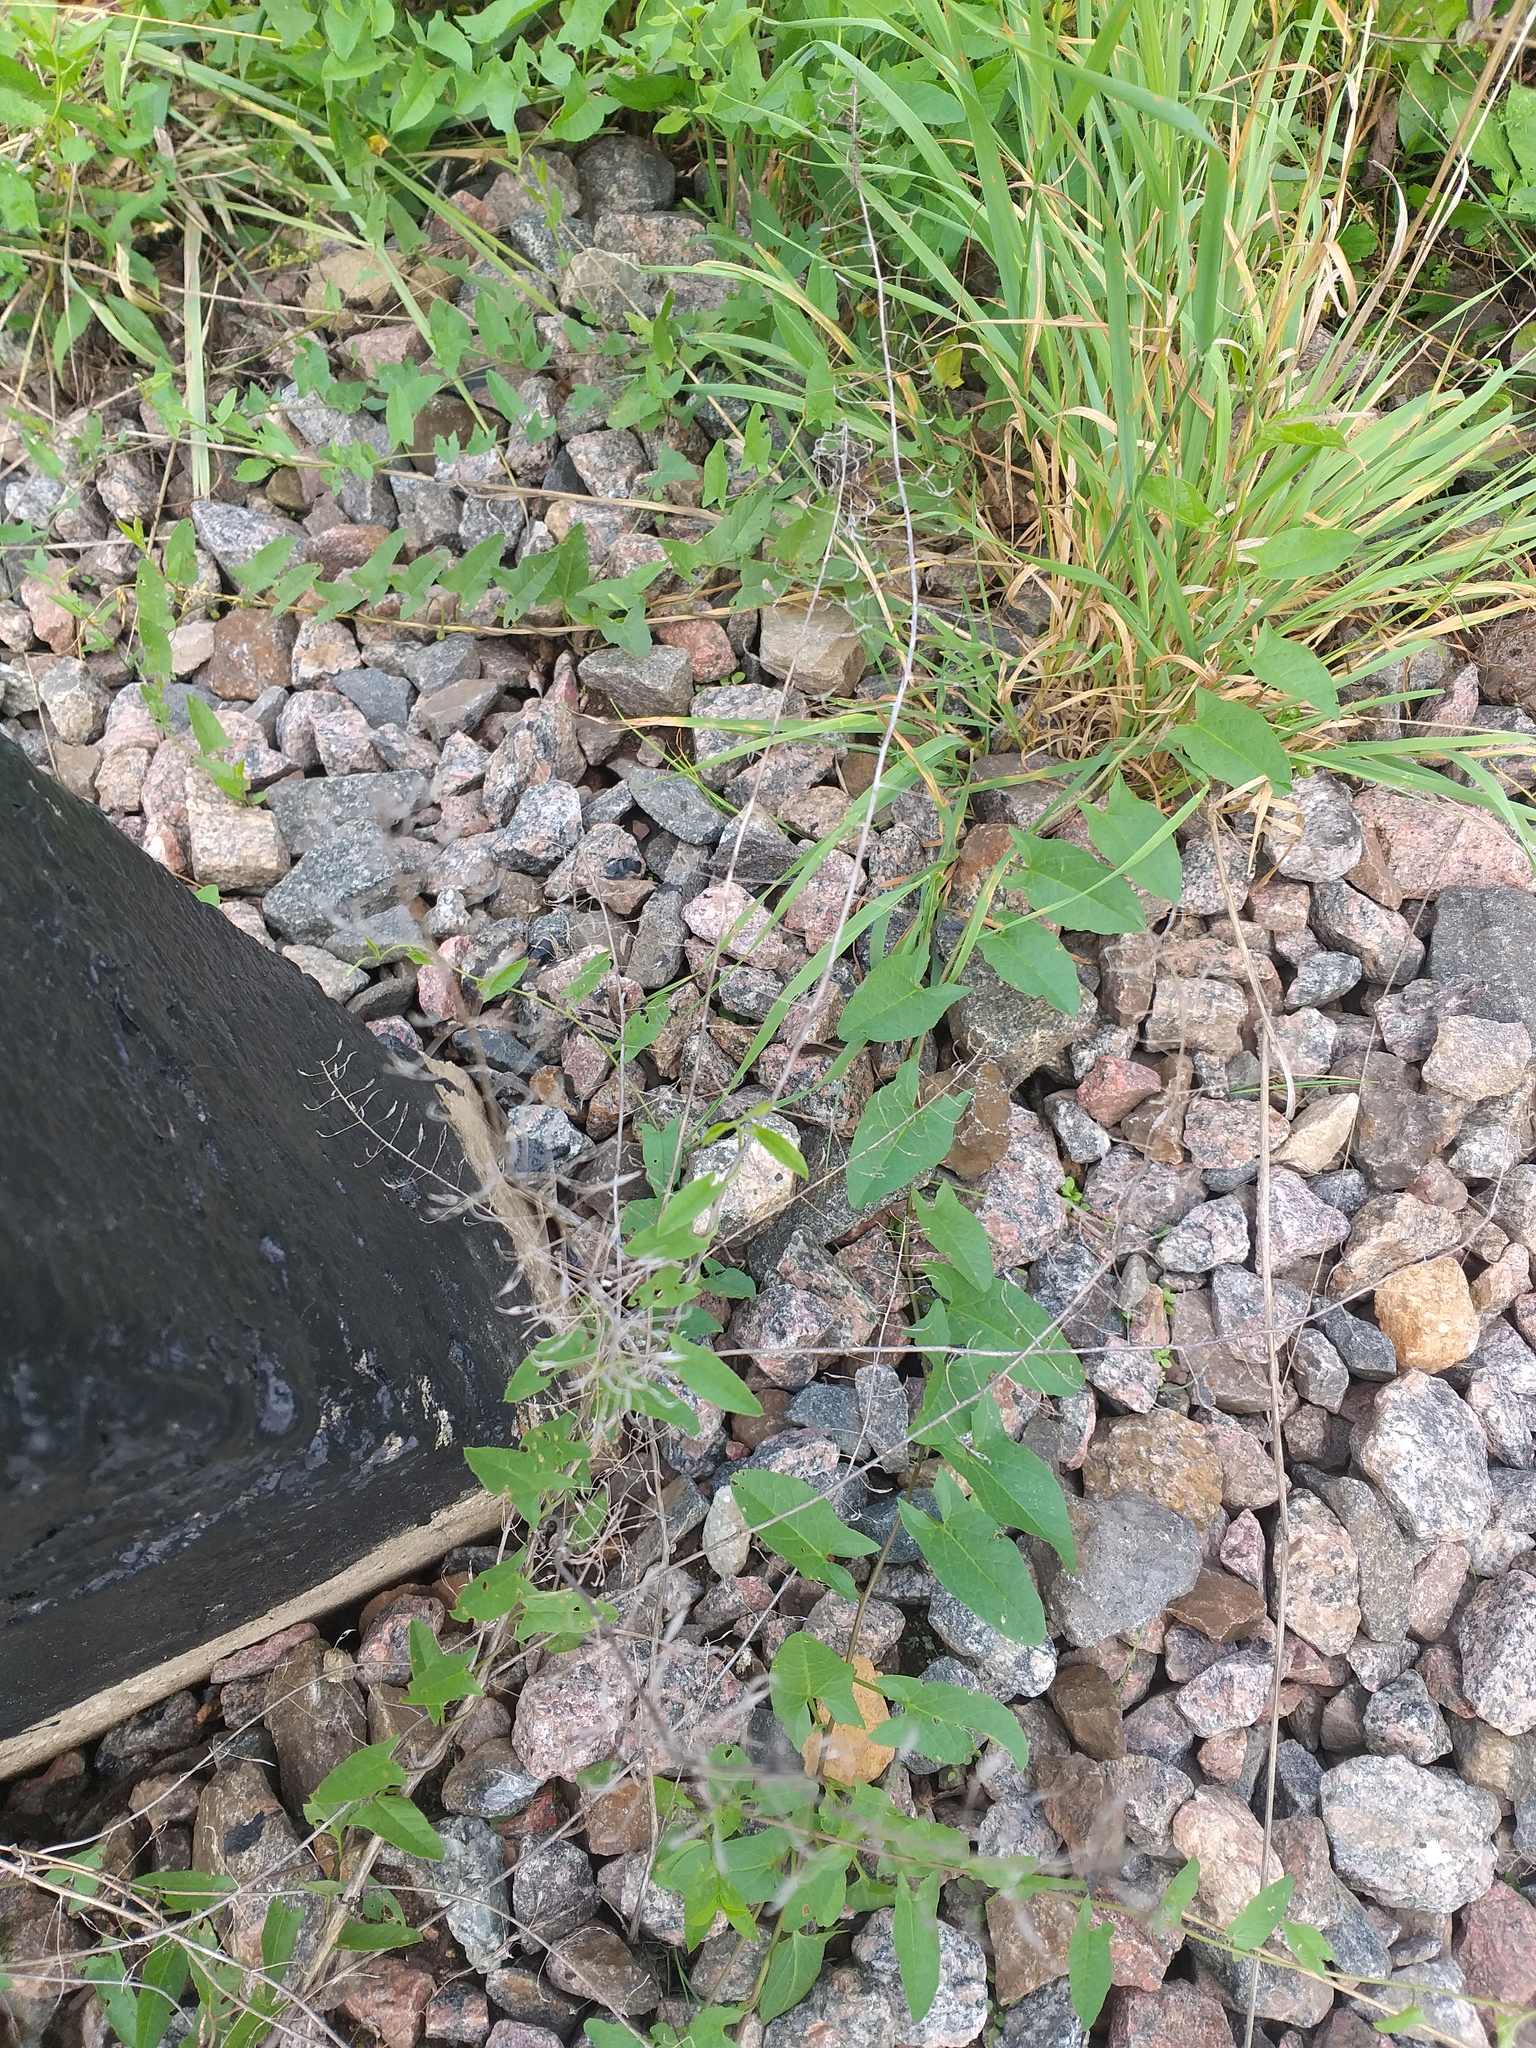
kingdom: Plantae
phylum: Tracheophyta
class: Magnoliopsida
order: Brassicales
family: Brassicaceae
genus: Capsella
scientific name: Capsella bursa-pastoris
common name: Shepherd's purse
